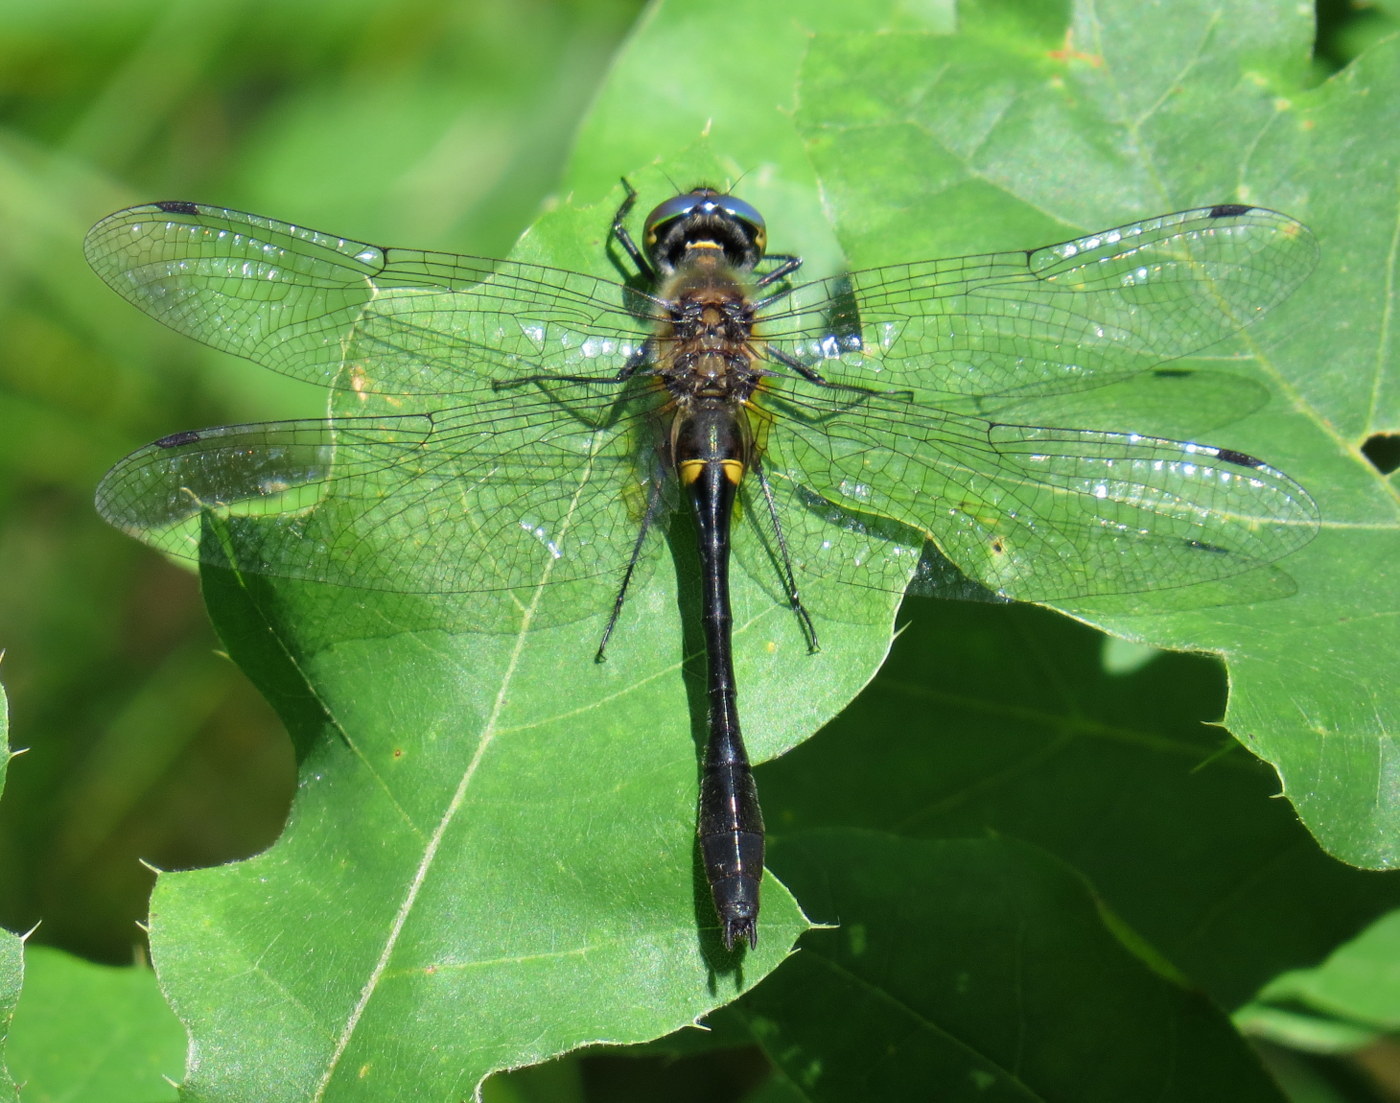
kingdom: Animalia
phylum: Arthropoda
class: Insecta
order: Odonata
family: Corduliidae
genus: Dorocordulia
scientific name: Dorocordulia libera
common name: Racket-tailed emerald
